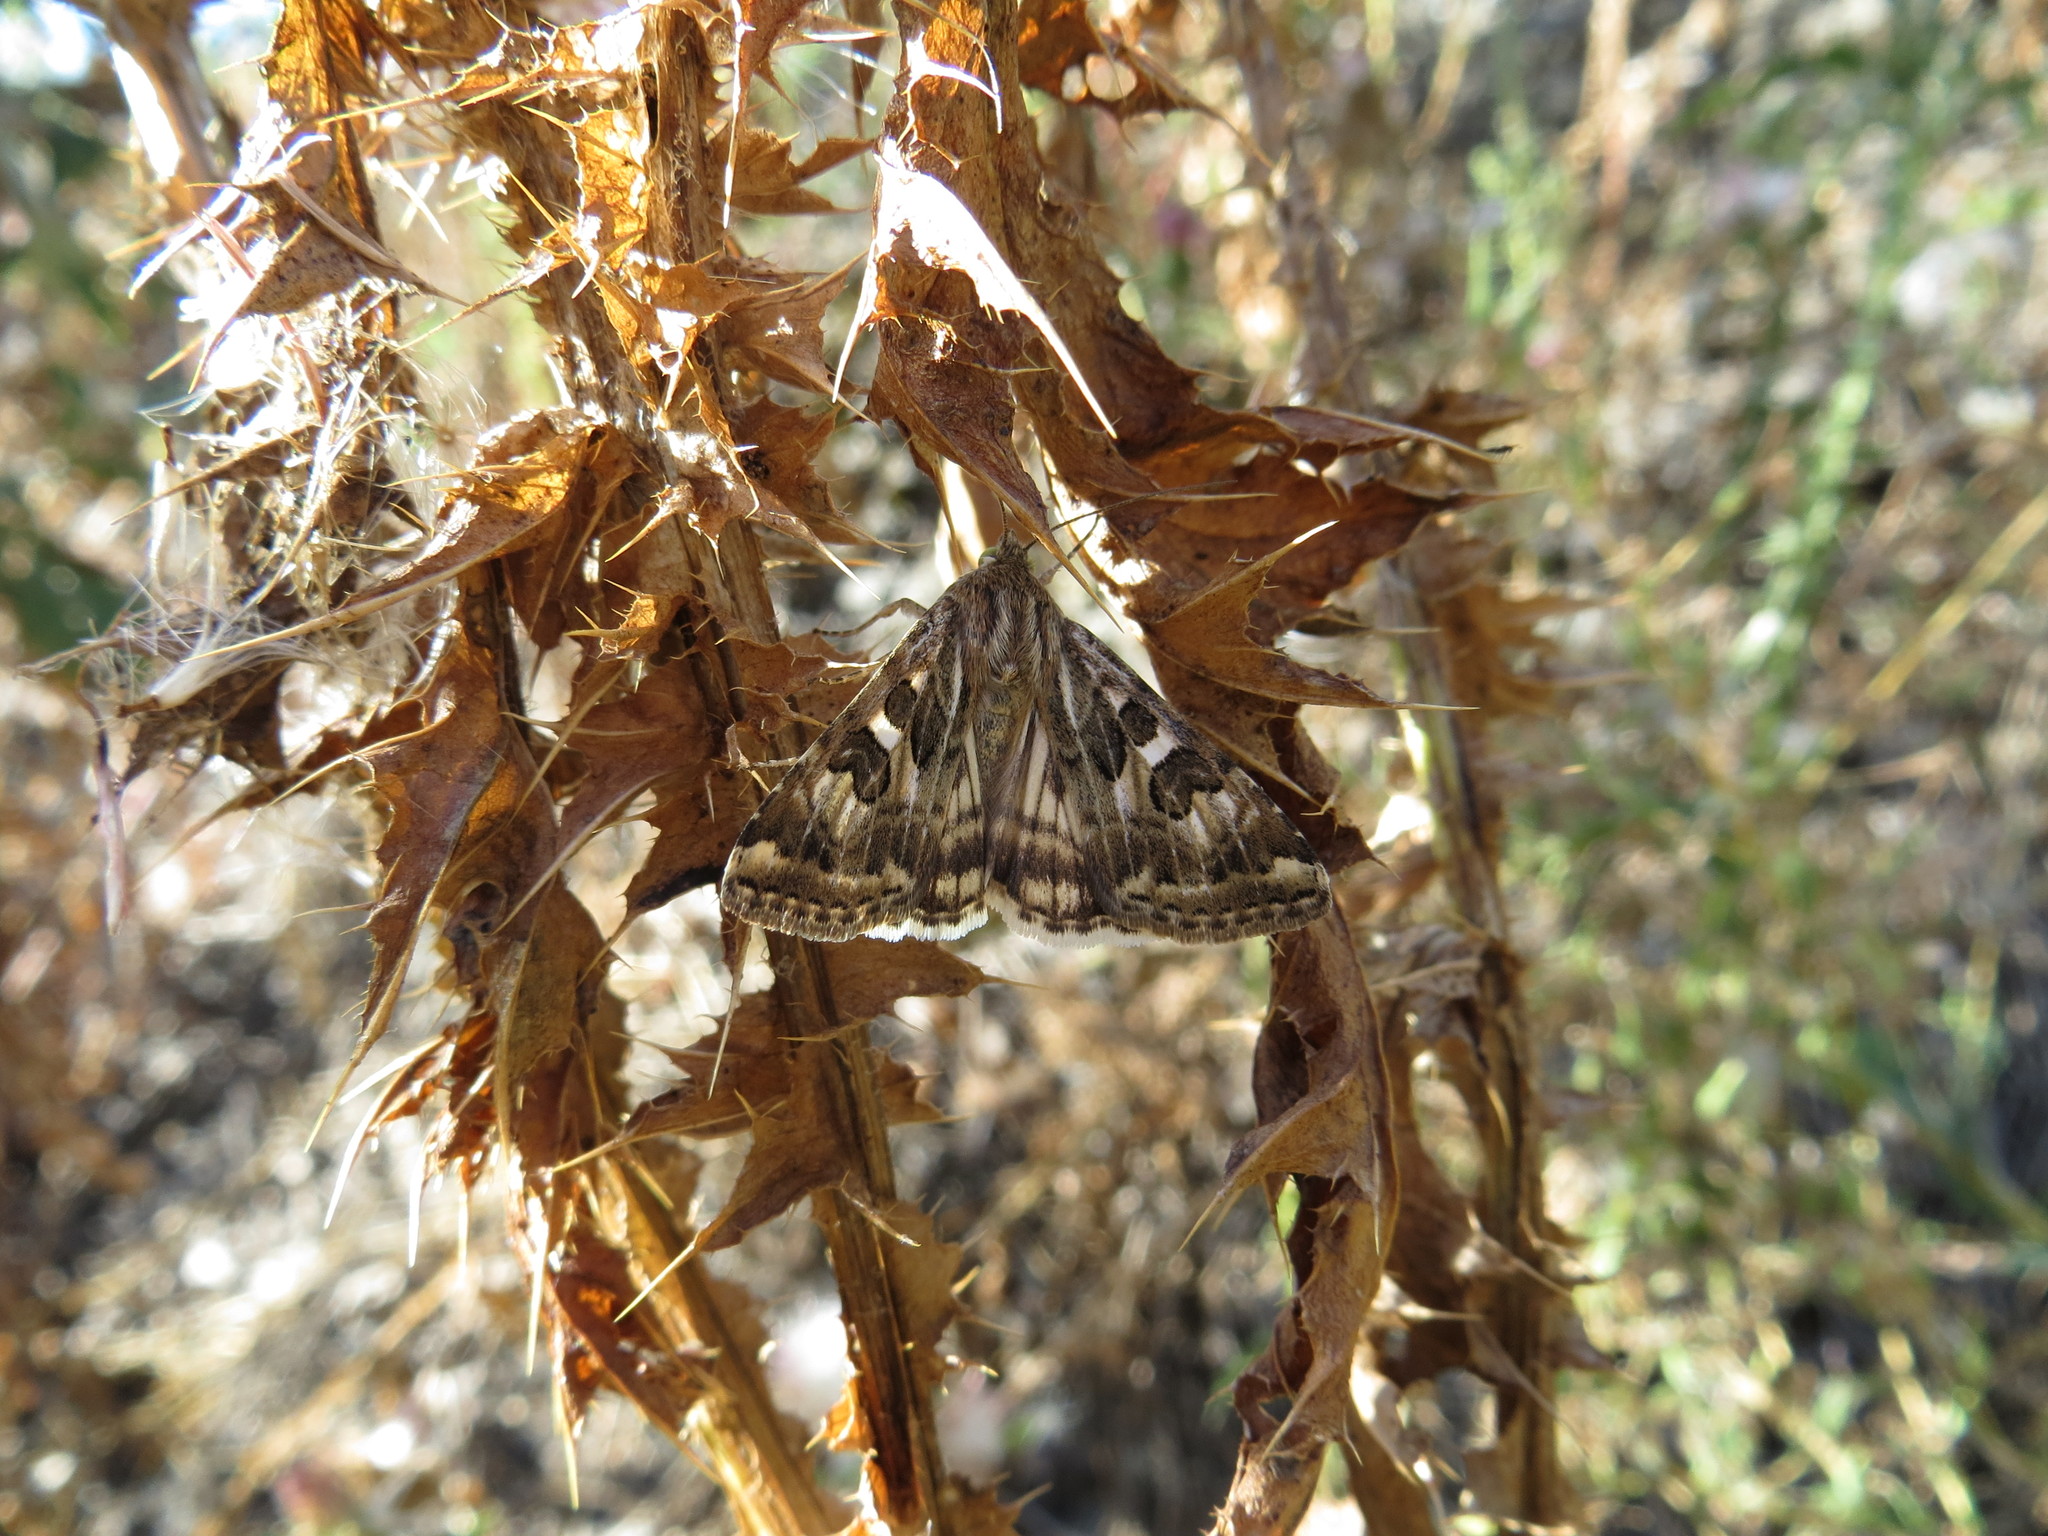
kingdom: Animalia
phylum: Arthropoda
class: Insecta
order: Lepidoptera
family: Noctuidae
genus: Protoschinia
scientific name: Protoschinia scutosa
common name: Spotted clover
